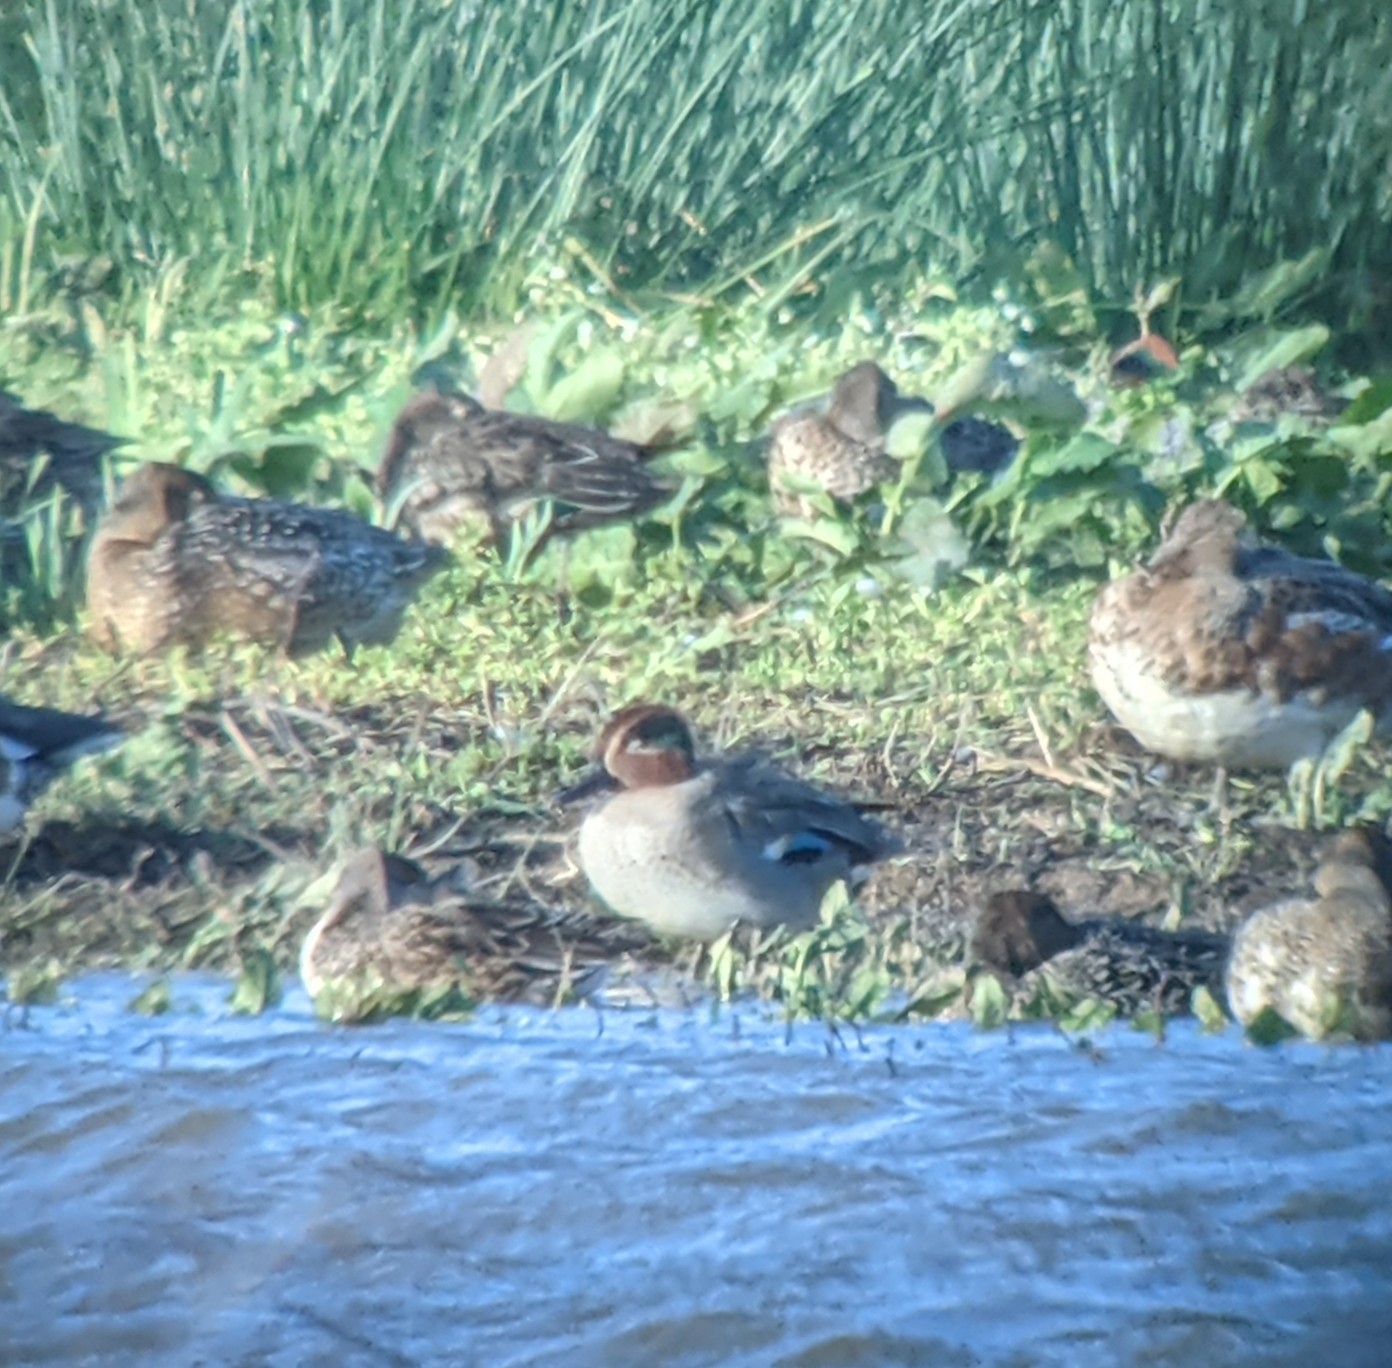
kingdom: Animalia
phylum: Chordata
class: Aves
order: Anseriformes
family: Anatidae
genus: Anas
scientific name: Anas crecca
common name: Eurasian teal
